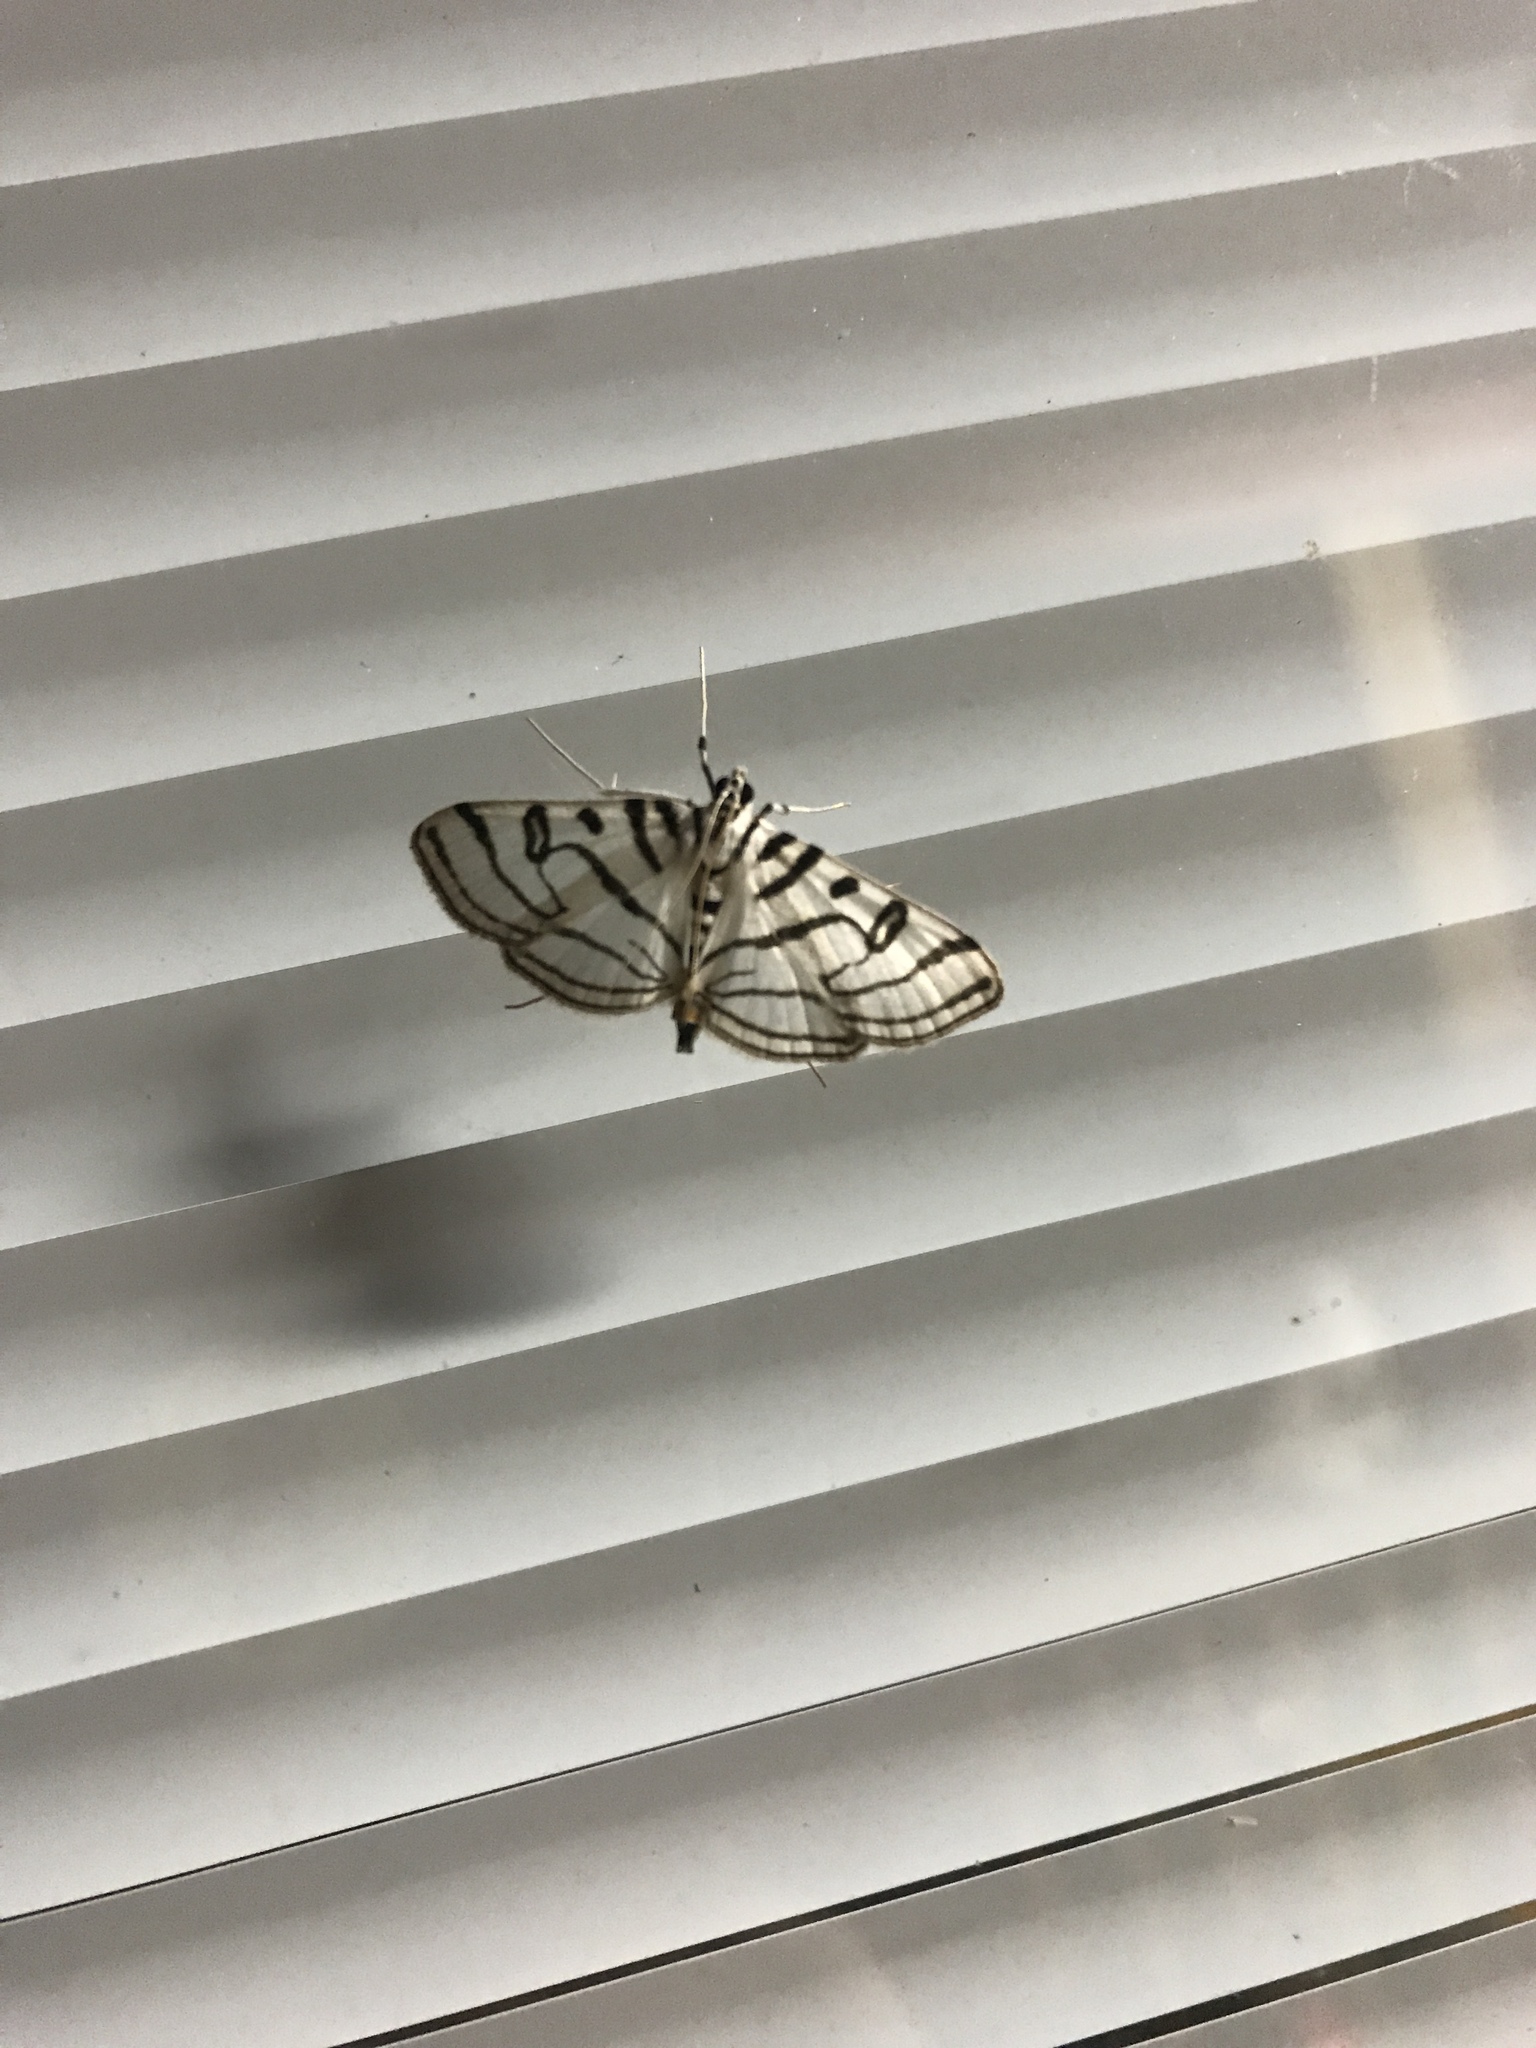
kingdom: Animalia
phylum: Arthropoda
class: Insecta
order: Lepidoptera
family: Crambidae
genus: Conchylodes
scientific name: Conchylodes ovulalis
